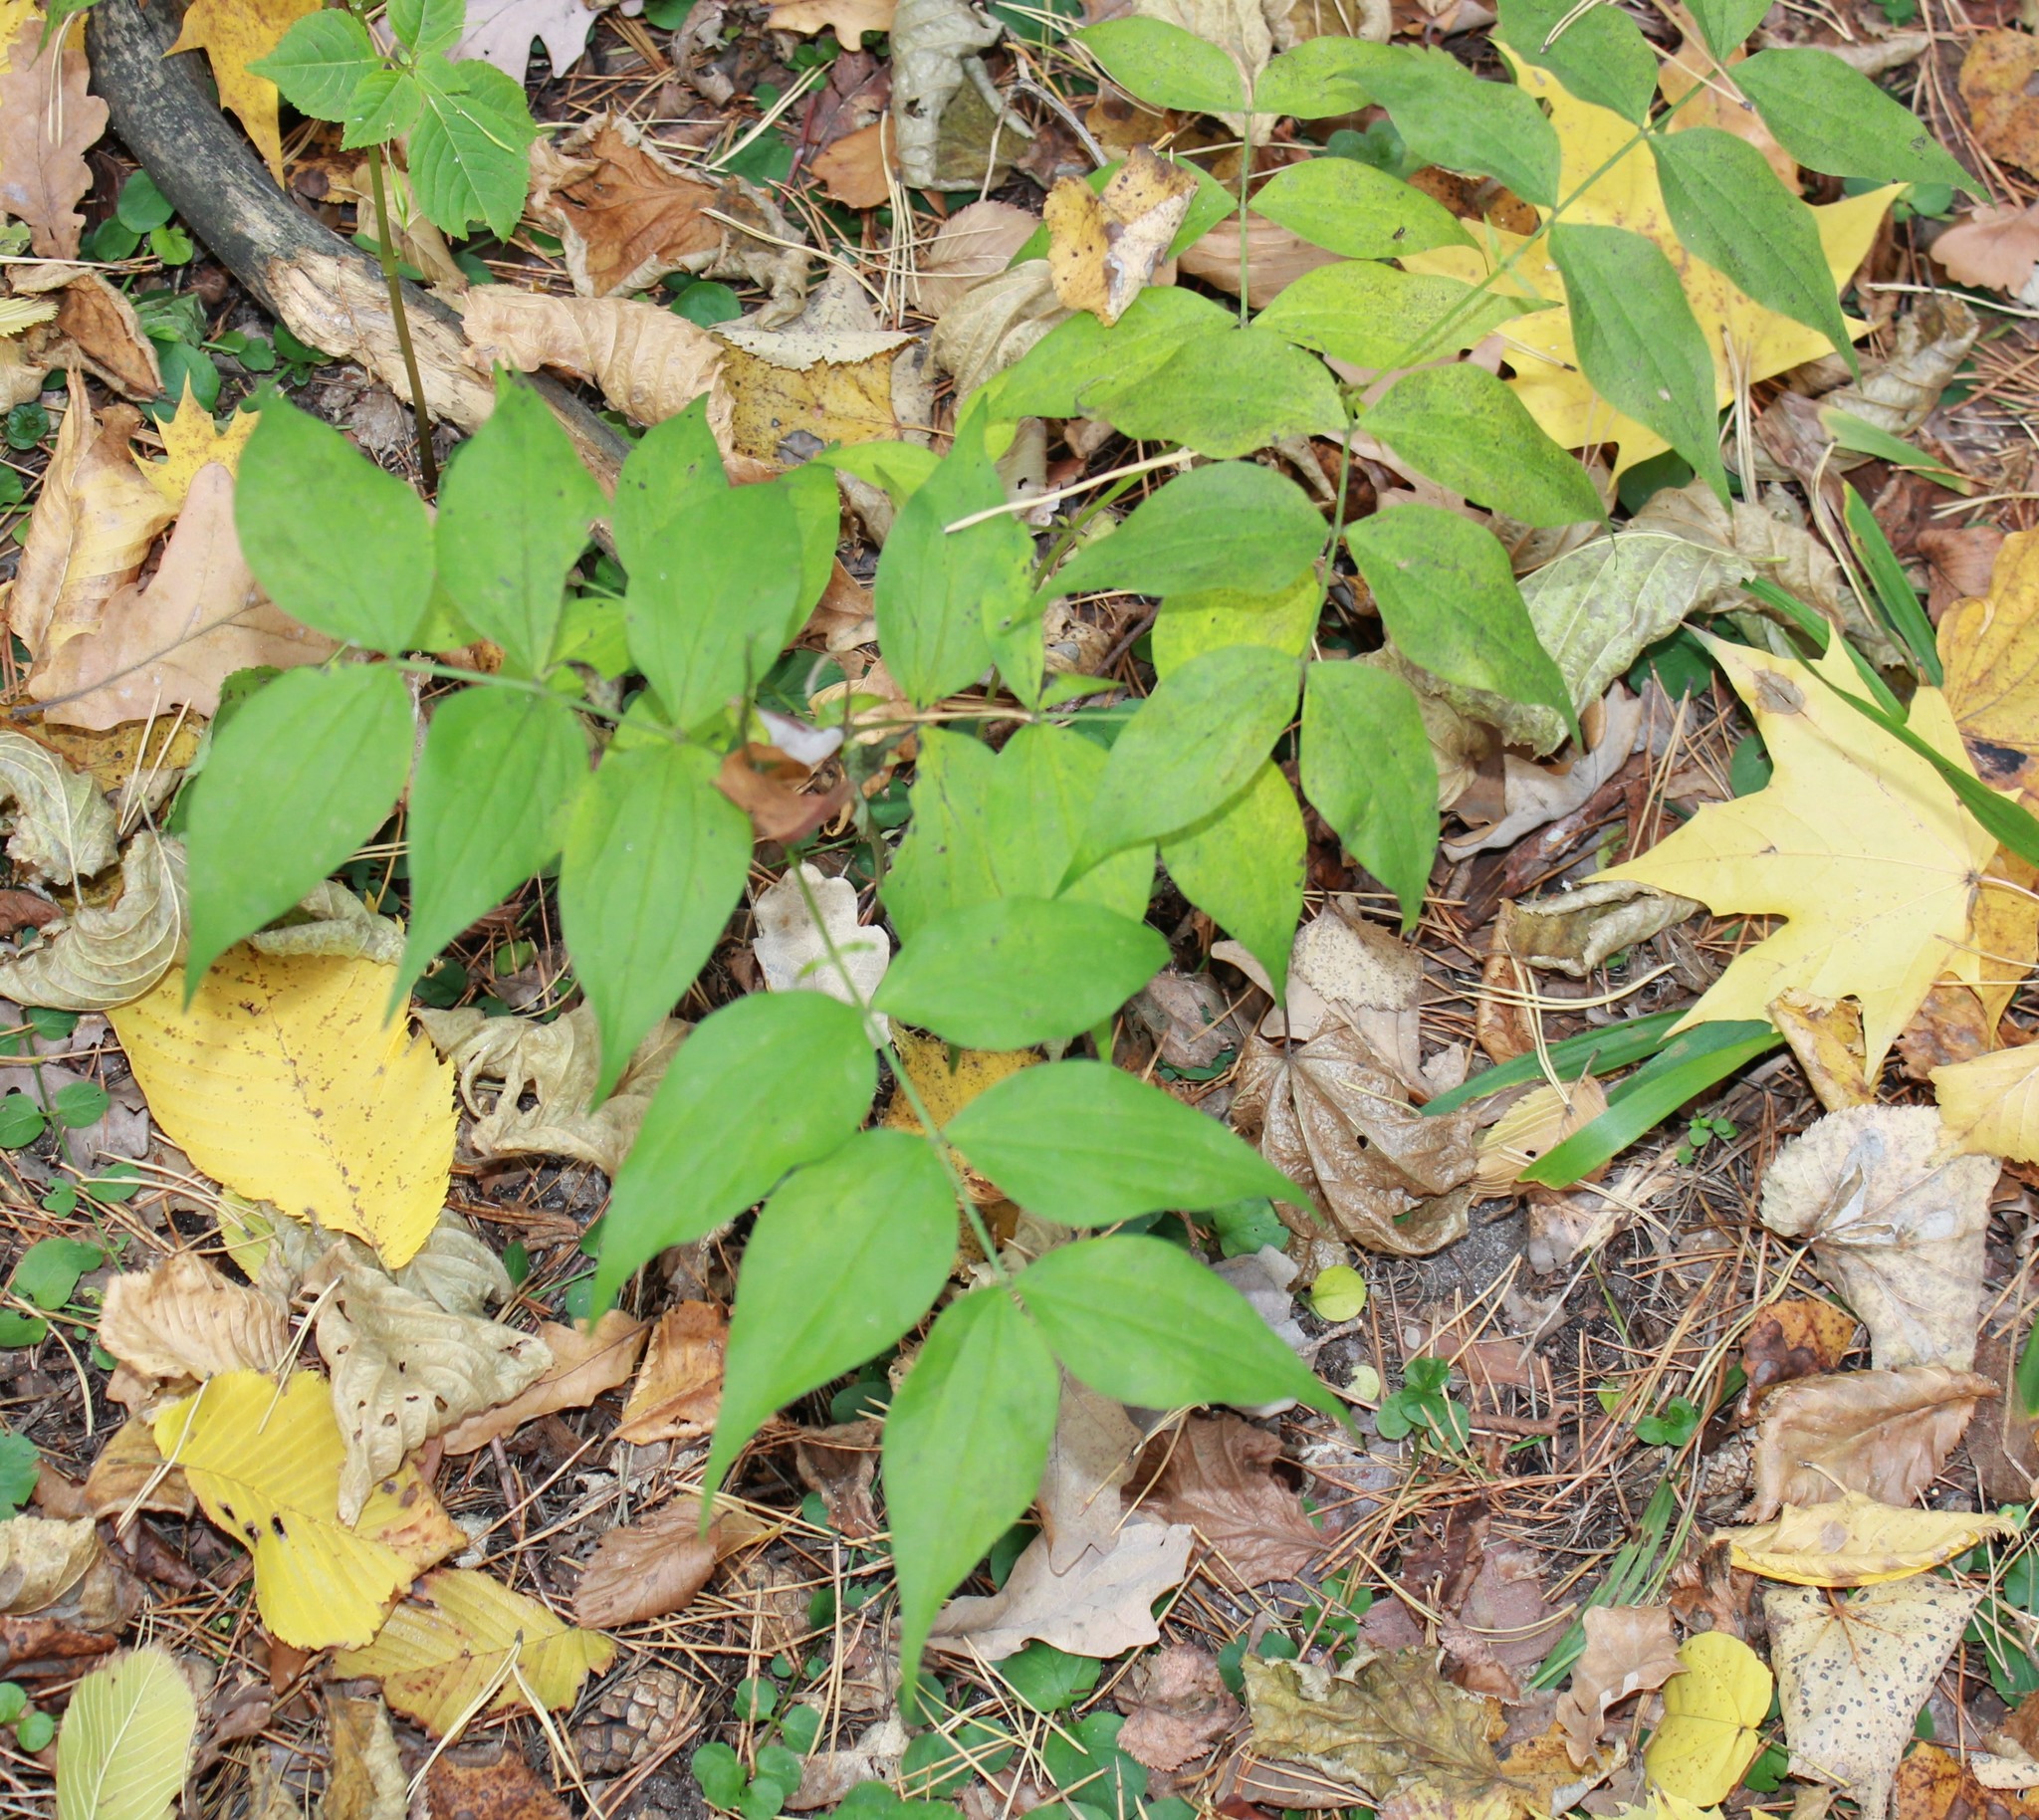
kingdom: Plantae
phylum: Tracheophyta
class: Magnoliopsida
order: Fabales
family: Fabaceae
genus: Lathyrus
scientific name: Lathyrus vernus
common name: Spring pea
